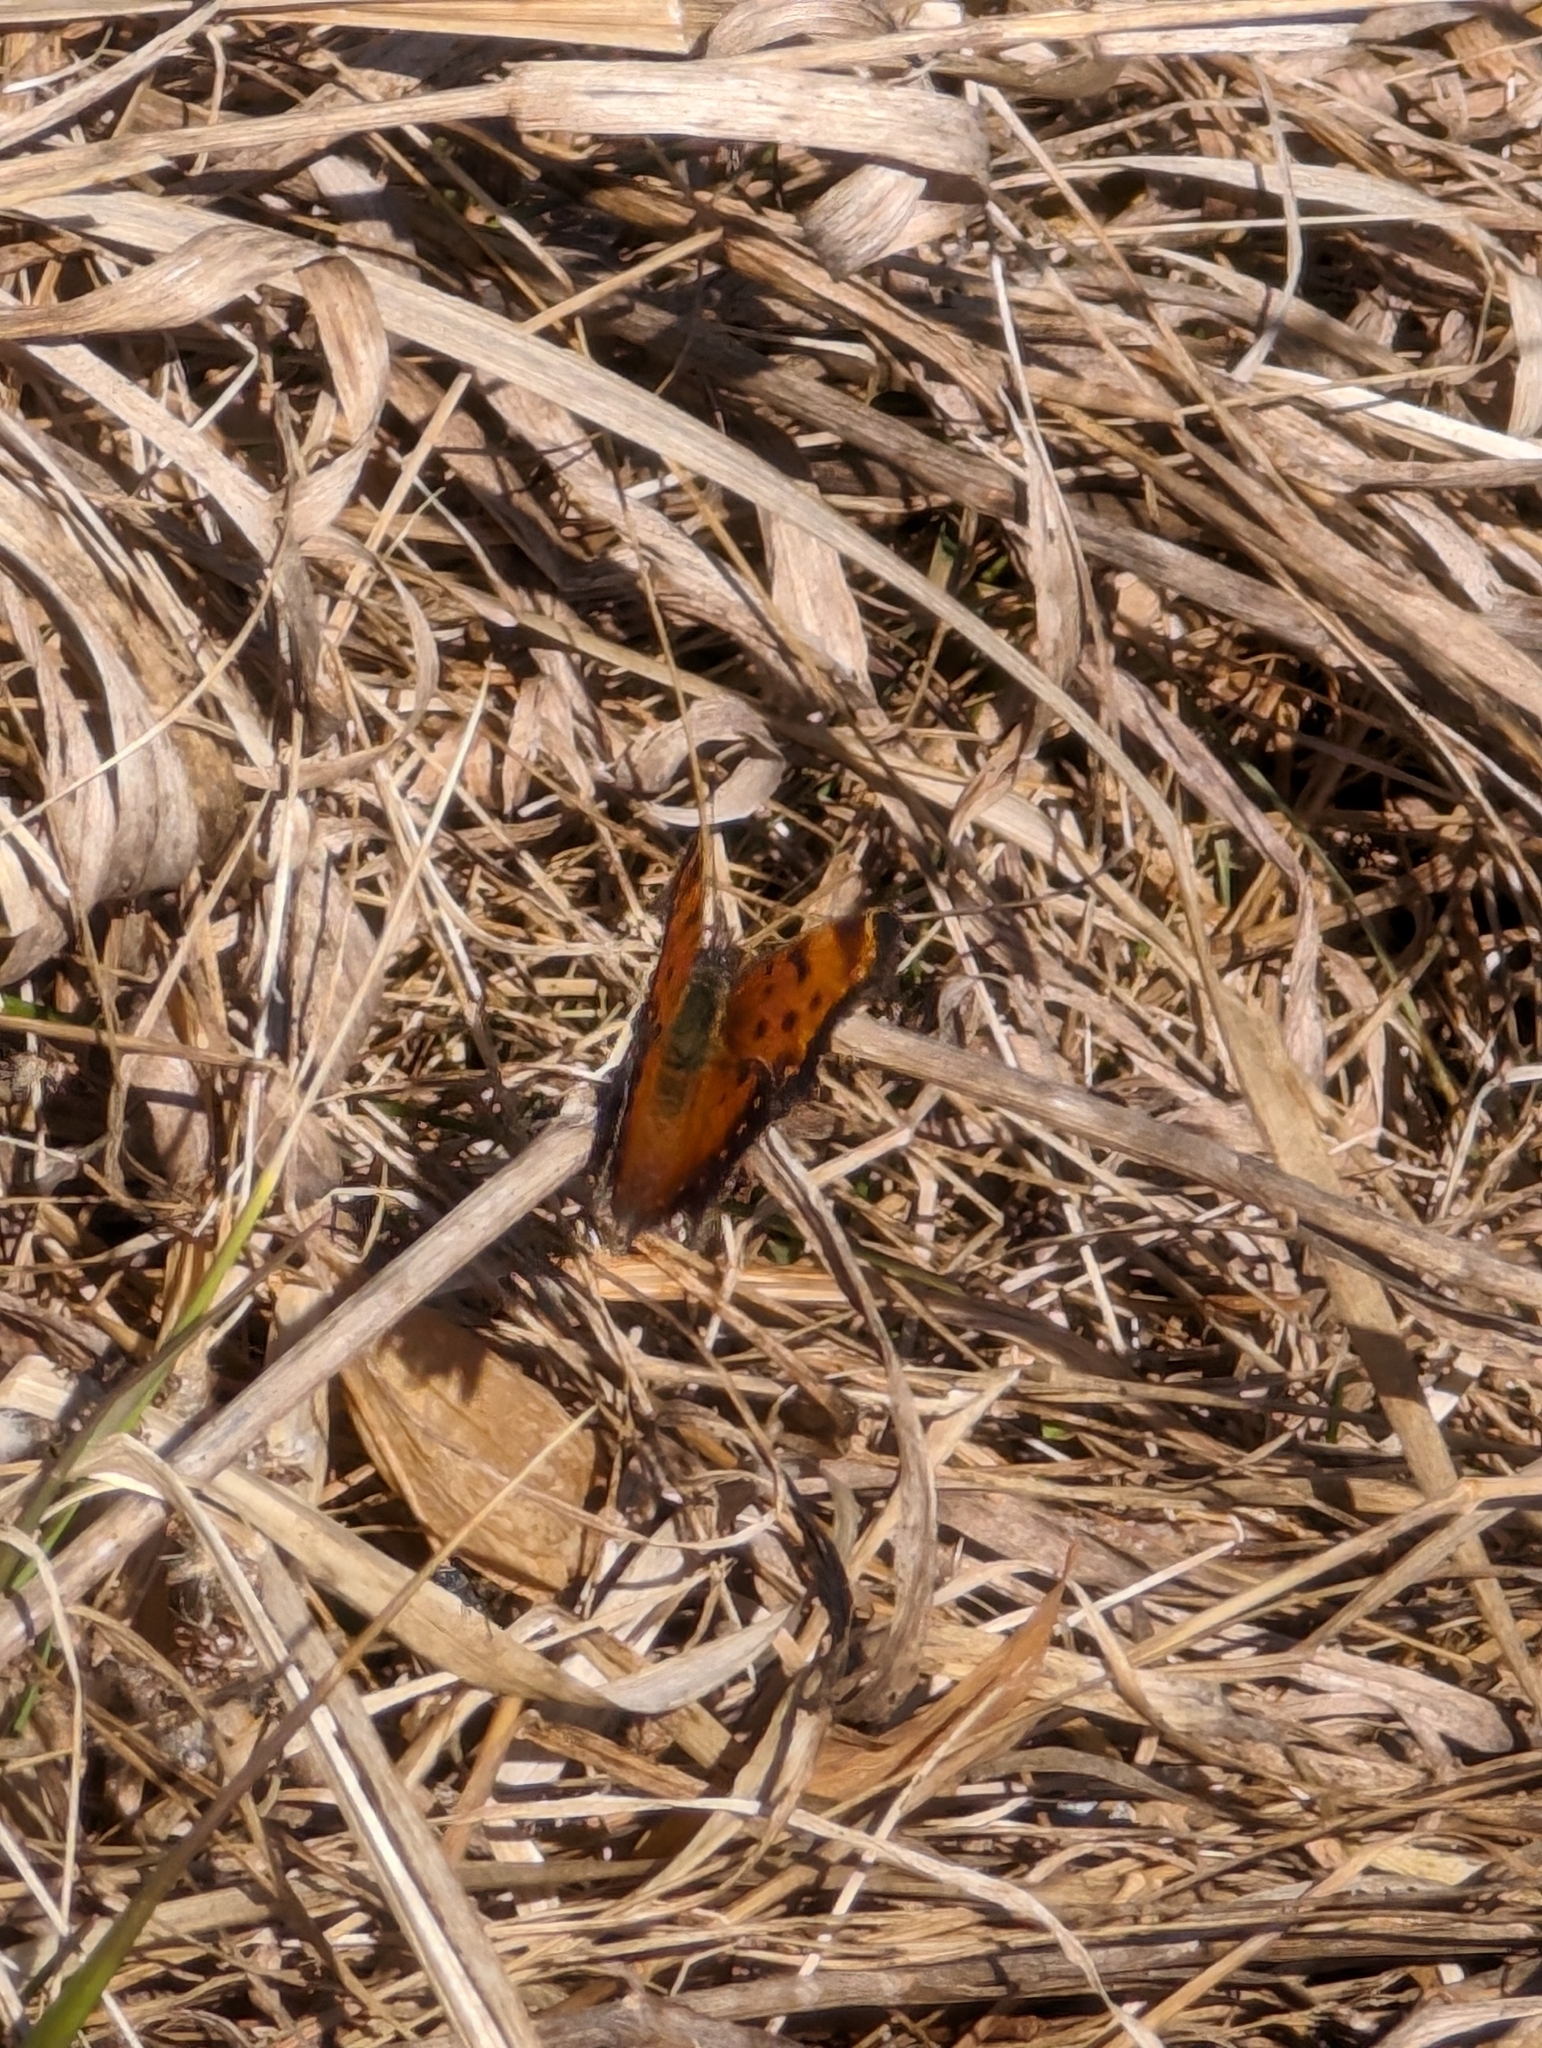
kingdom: Animalia
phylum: Arthropoda
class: Insecta
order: Lepidoptera
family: Nymphalidae
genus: Polygonia
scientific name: Polygonia progne
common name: Gray comma
